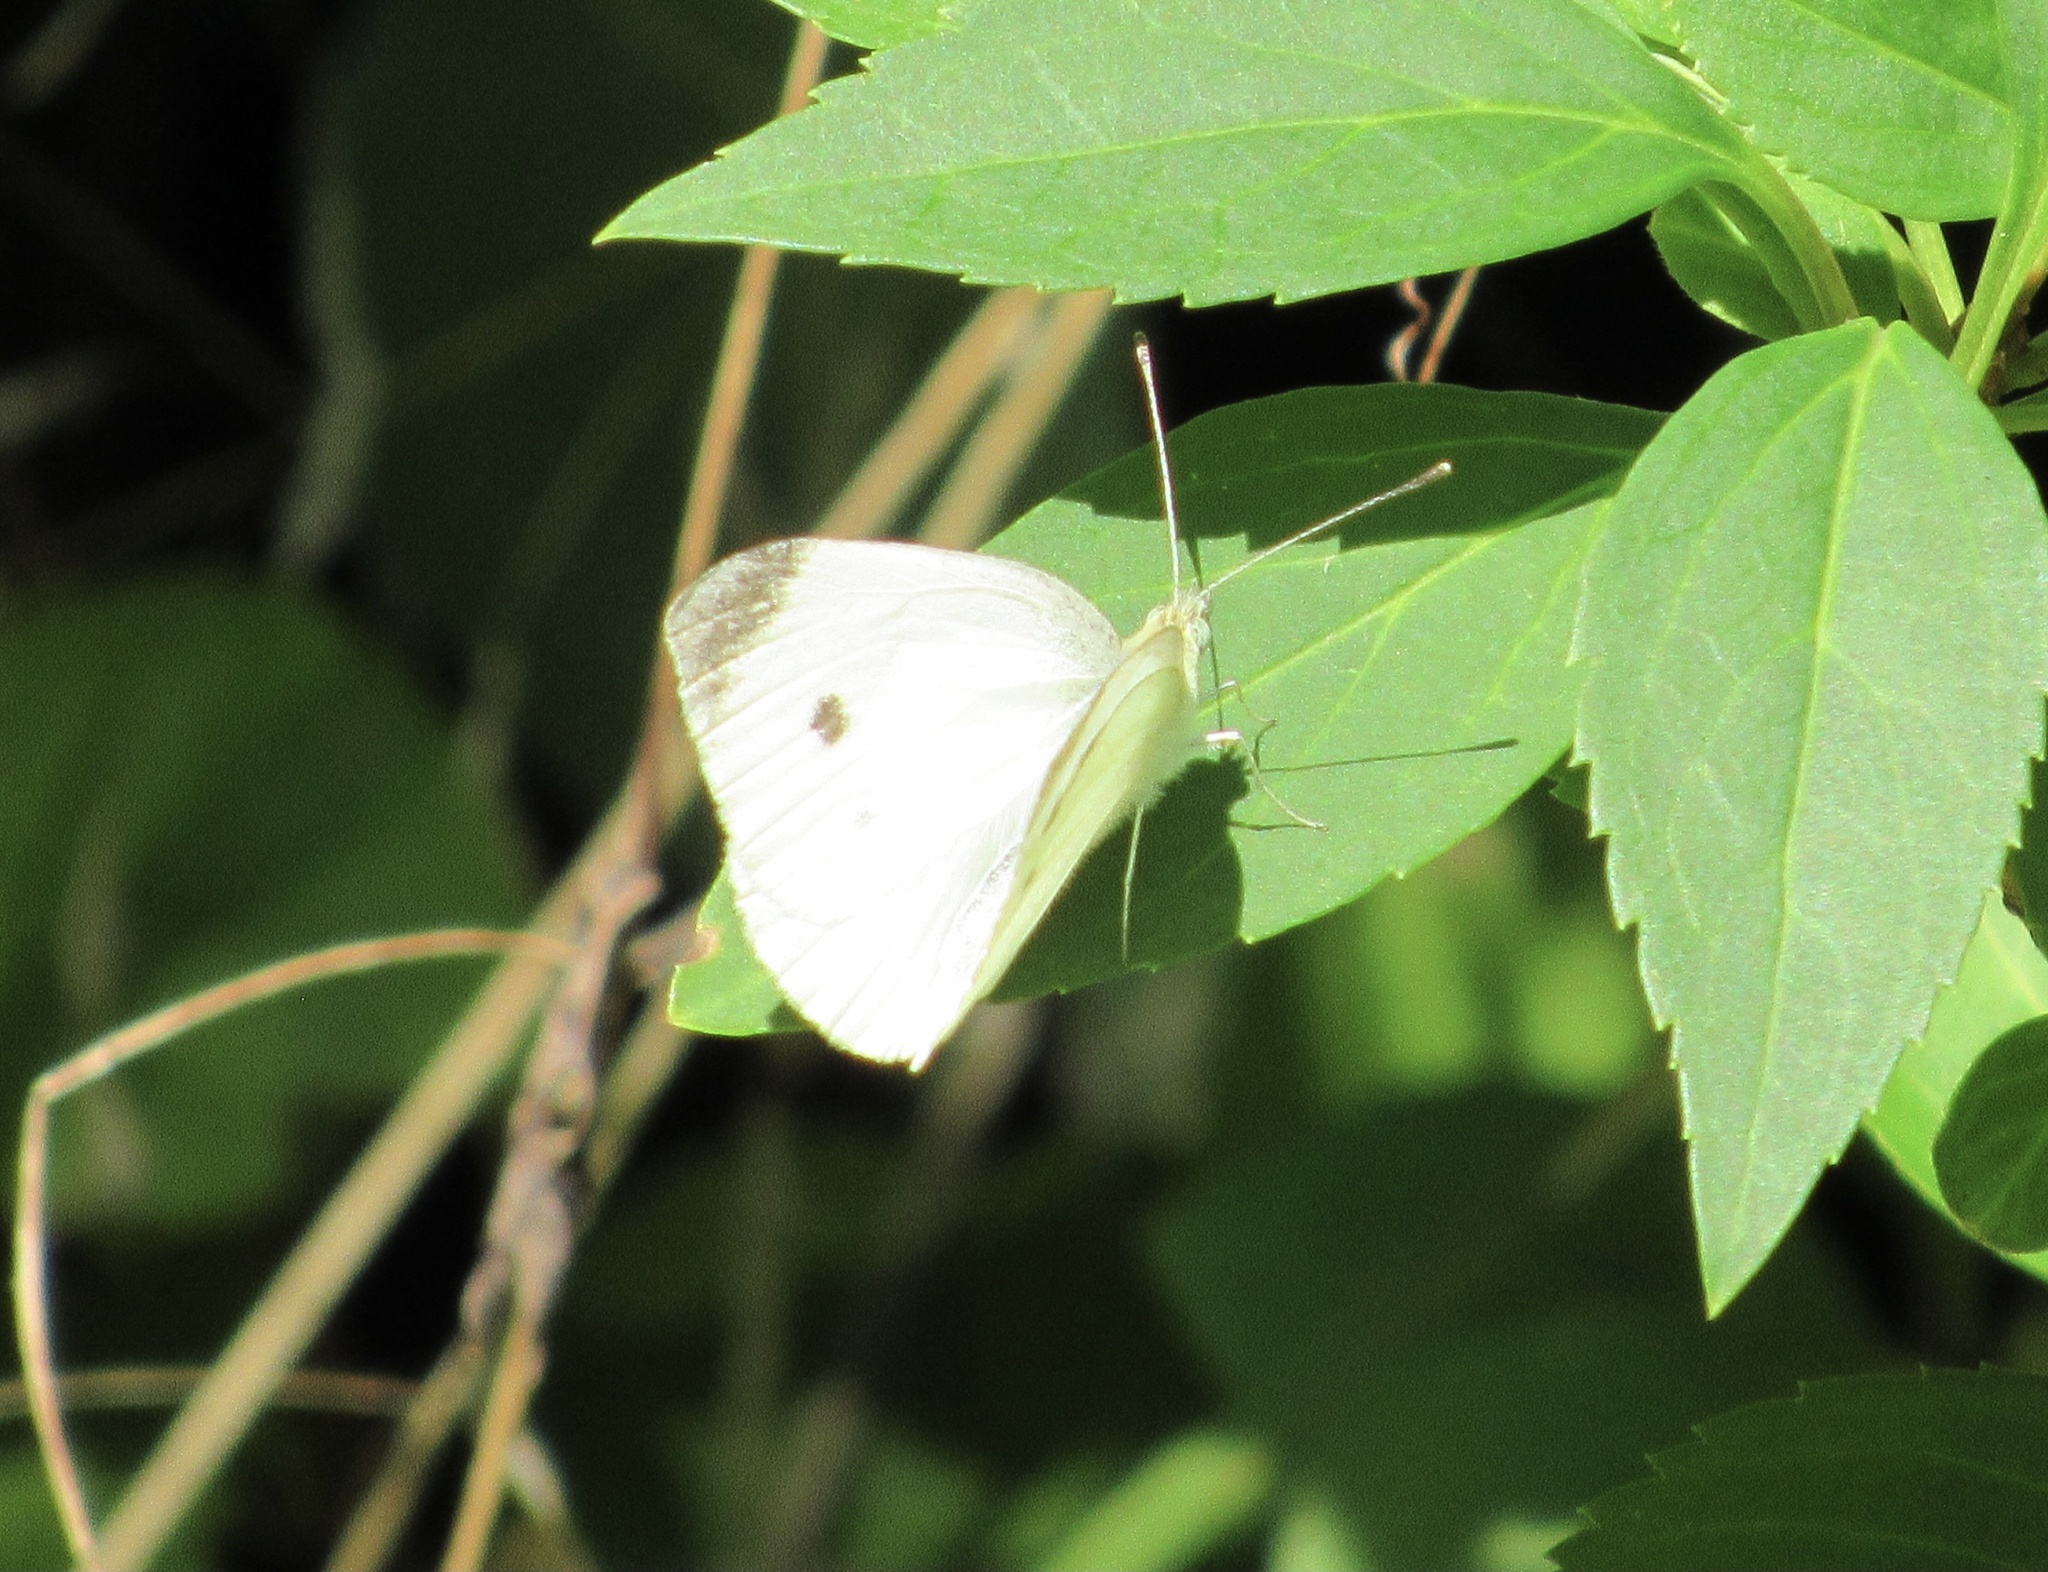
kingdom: Animalia
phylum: Arthropoda
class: Insecta
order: Lepidoptera
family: Pieridae
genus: Pieris
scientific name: Pieris rapae
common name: Small white
